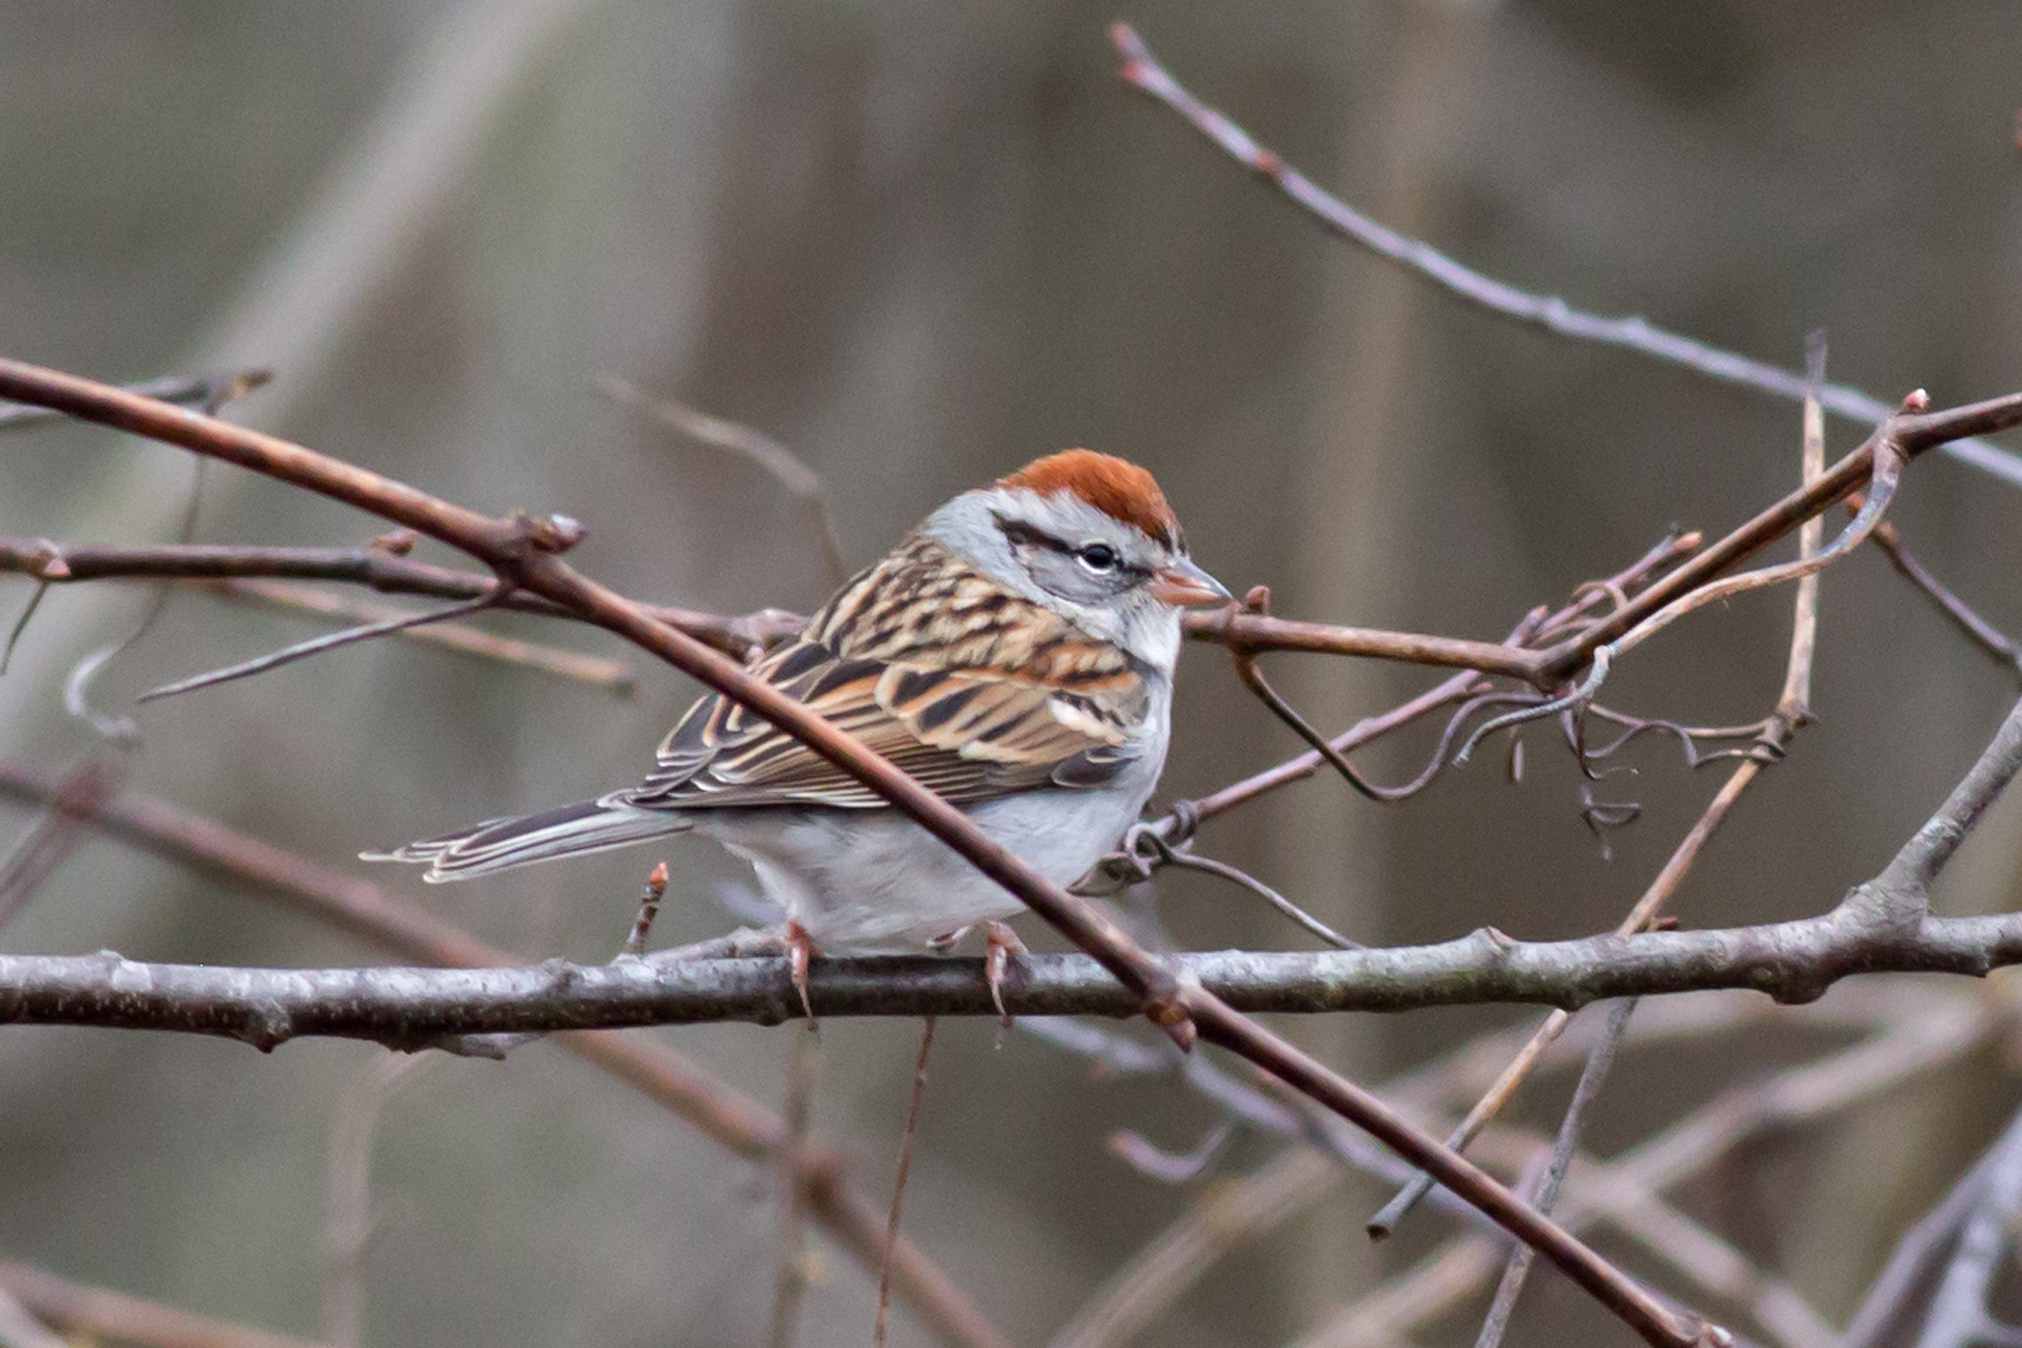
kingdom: Animalia
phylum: Chordata
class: Aves
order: Passeriformes
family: Passerellidae
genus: Spizella
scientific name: Spizella passerina
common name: Chipping sparrow
